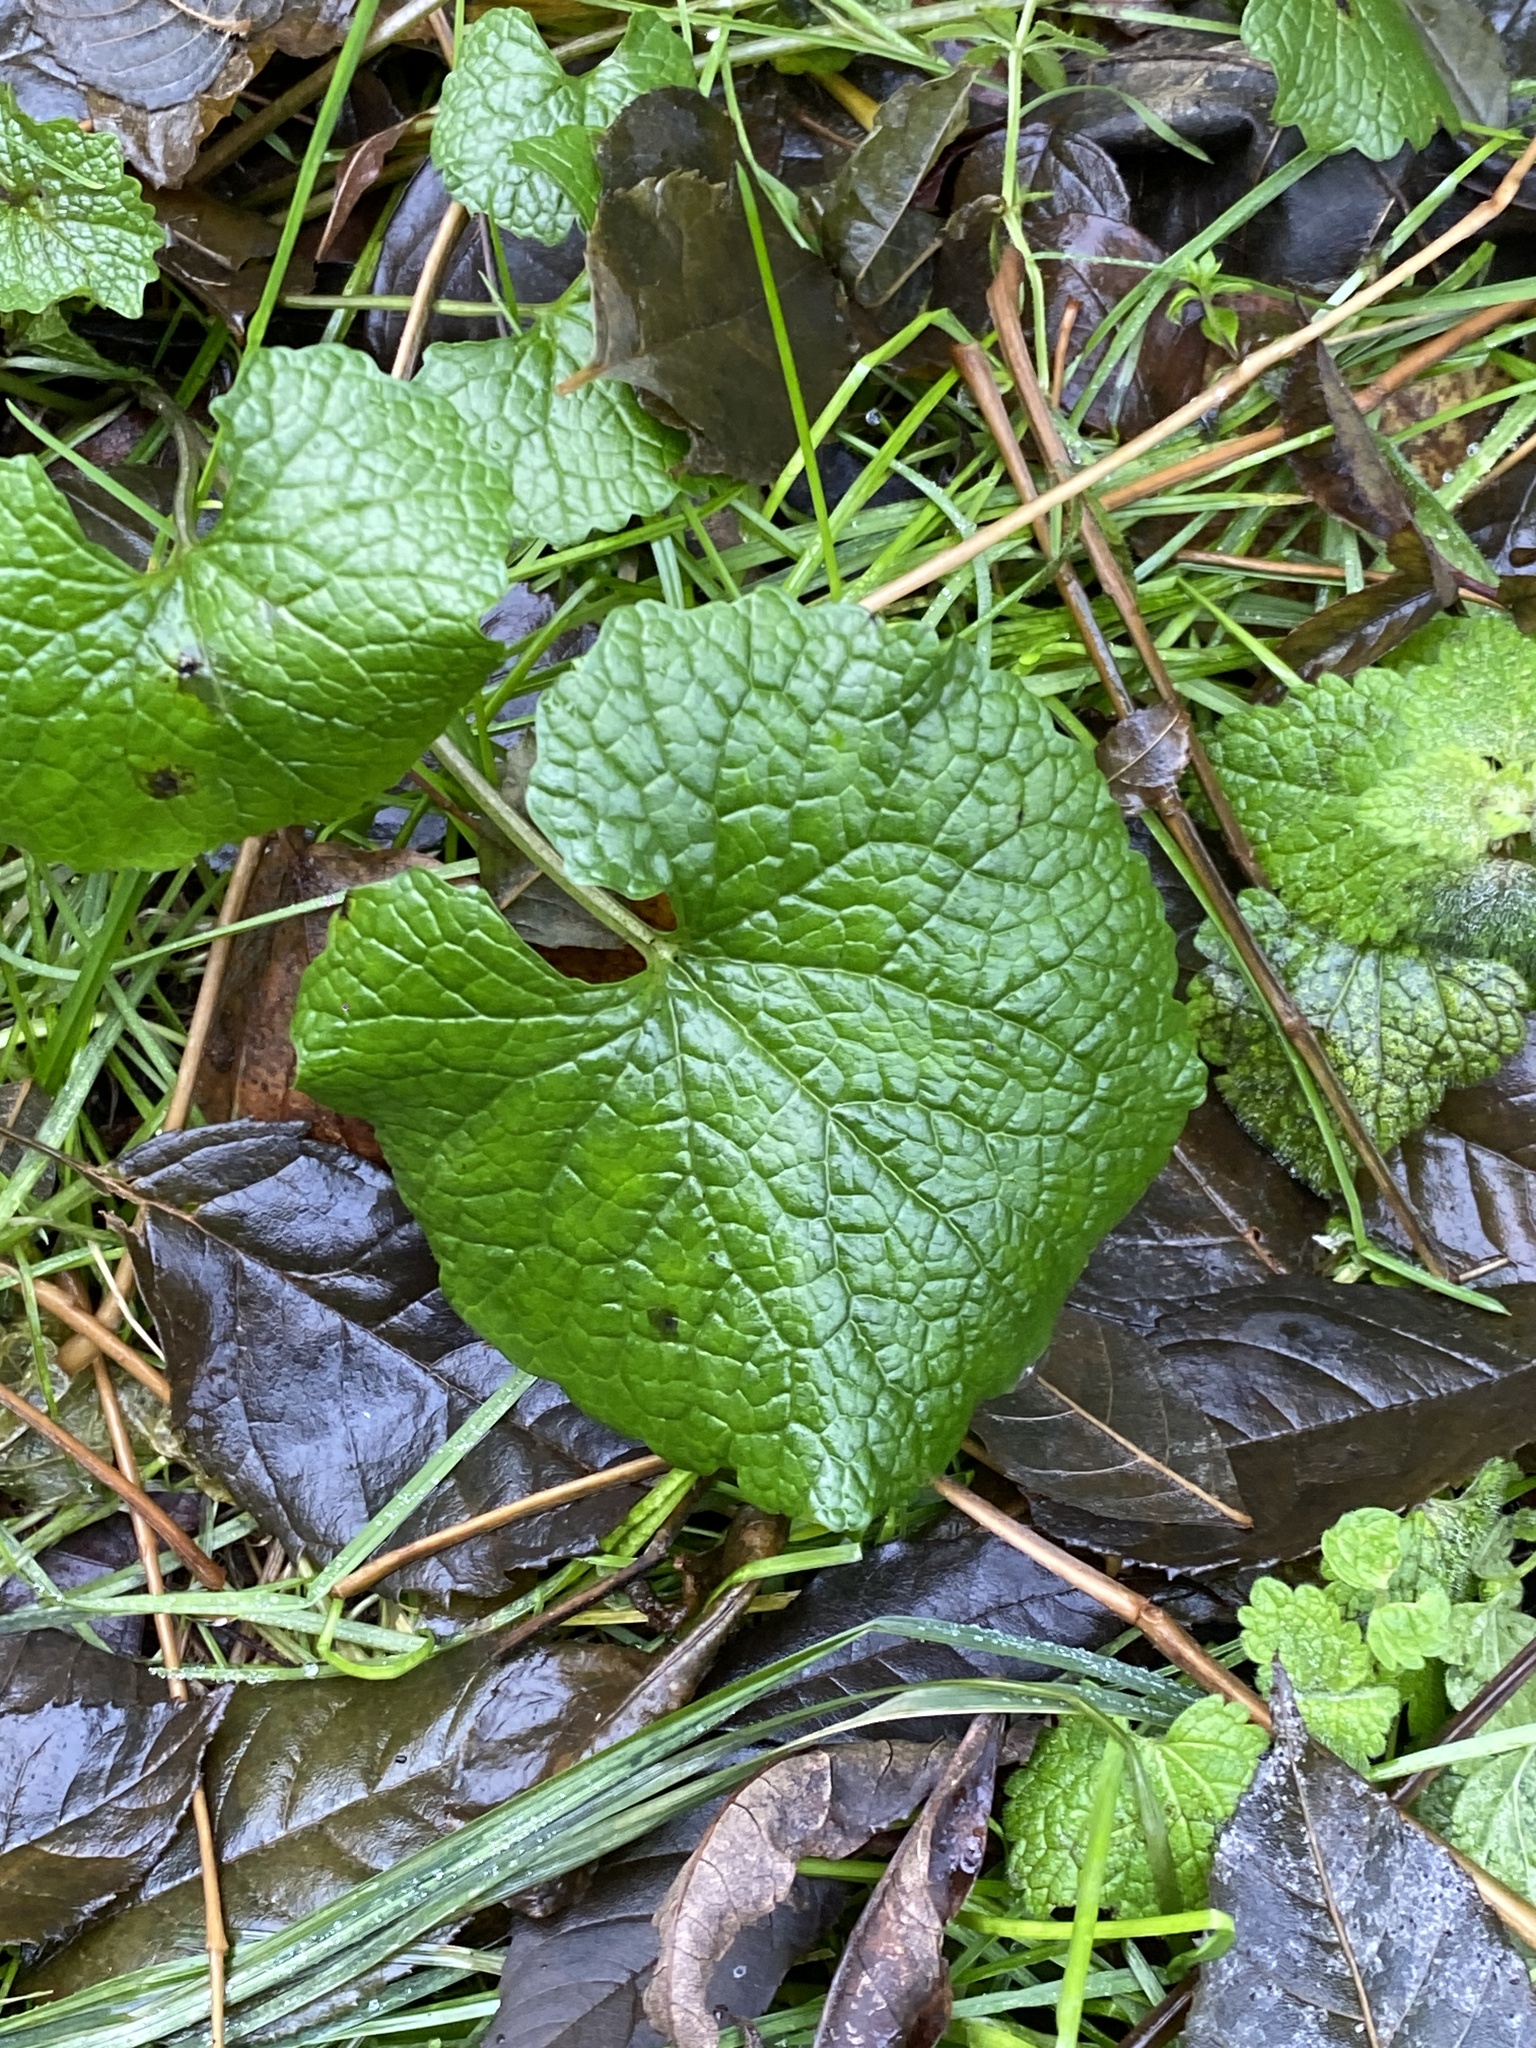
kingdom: Plantae
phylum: Tracheophyta
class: Magnoliopsida
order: Brassicales
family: Brassicaceae
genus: Alliaria
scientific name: Alliaria petiolata
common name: Garlic mustard
